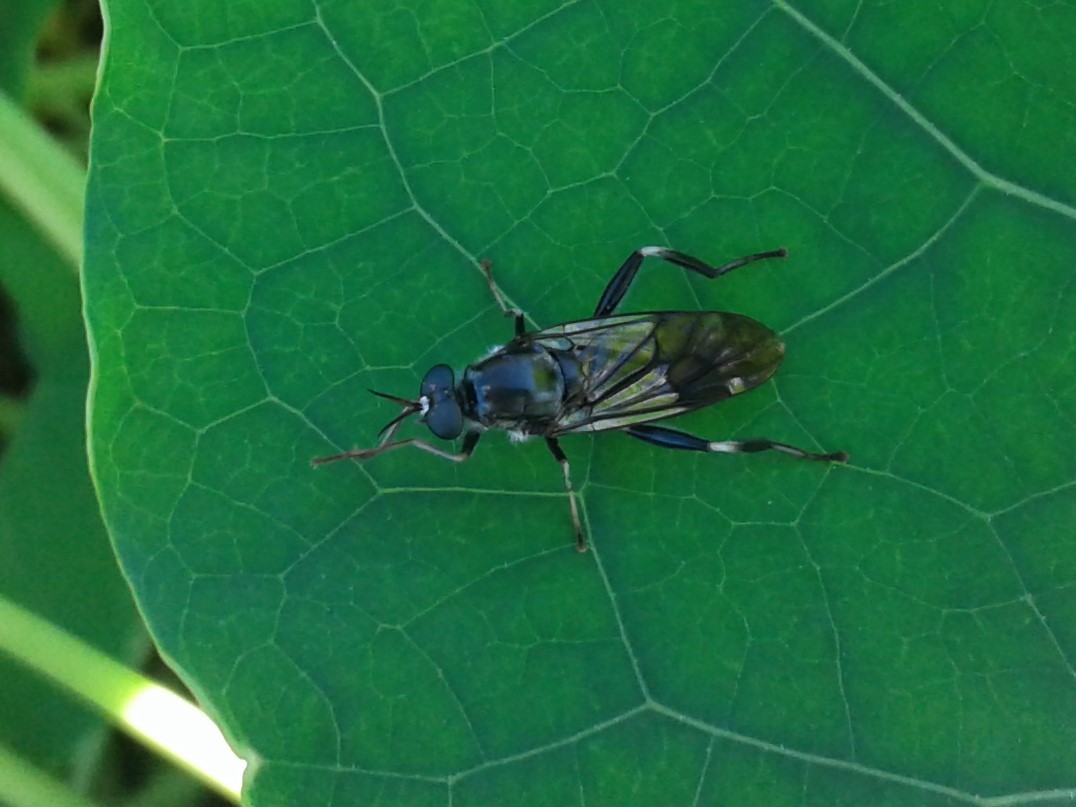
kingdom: Animalia
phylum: Arthropoda
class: Insecta
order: Diptera
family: Stratiomyidae
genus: Exaireta
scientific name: Exaireta spinigera
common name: Blue soldier fly
